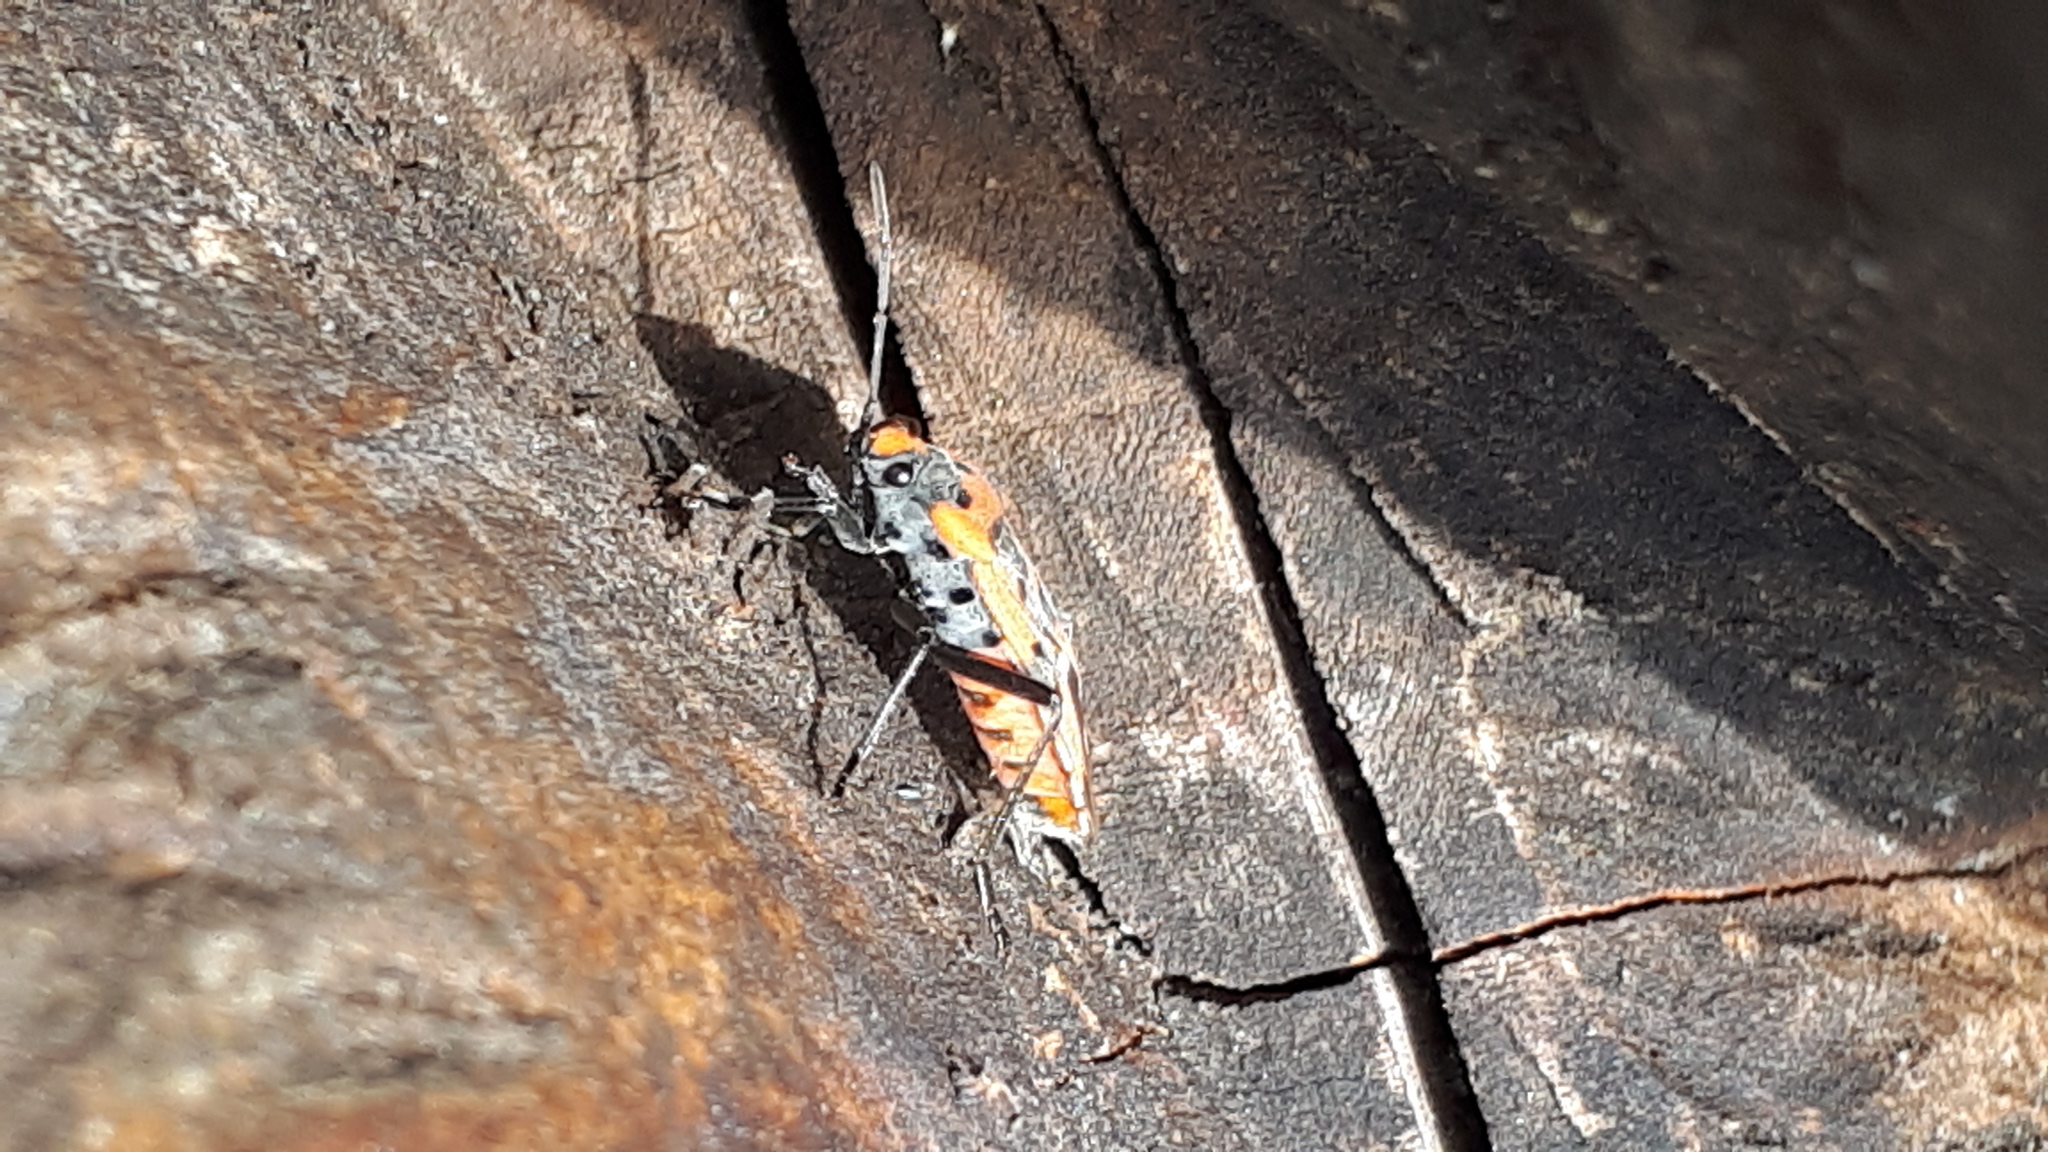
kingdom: Animalia
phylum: Arthropoda
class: Insecta
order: Hemiptera
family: Lygaeidae
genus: Lygaeus
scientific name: Lygaeus equestris
